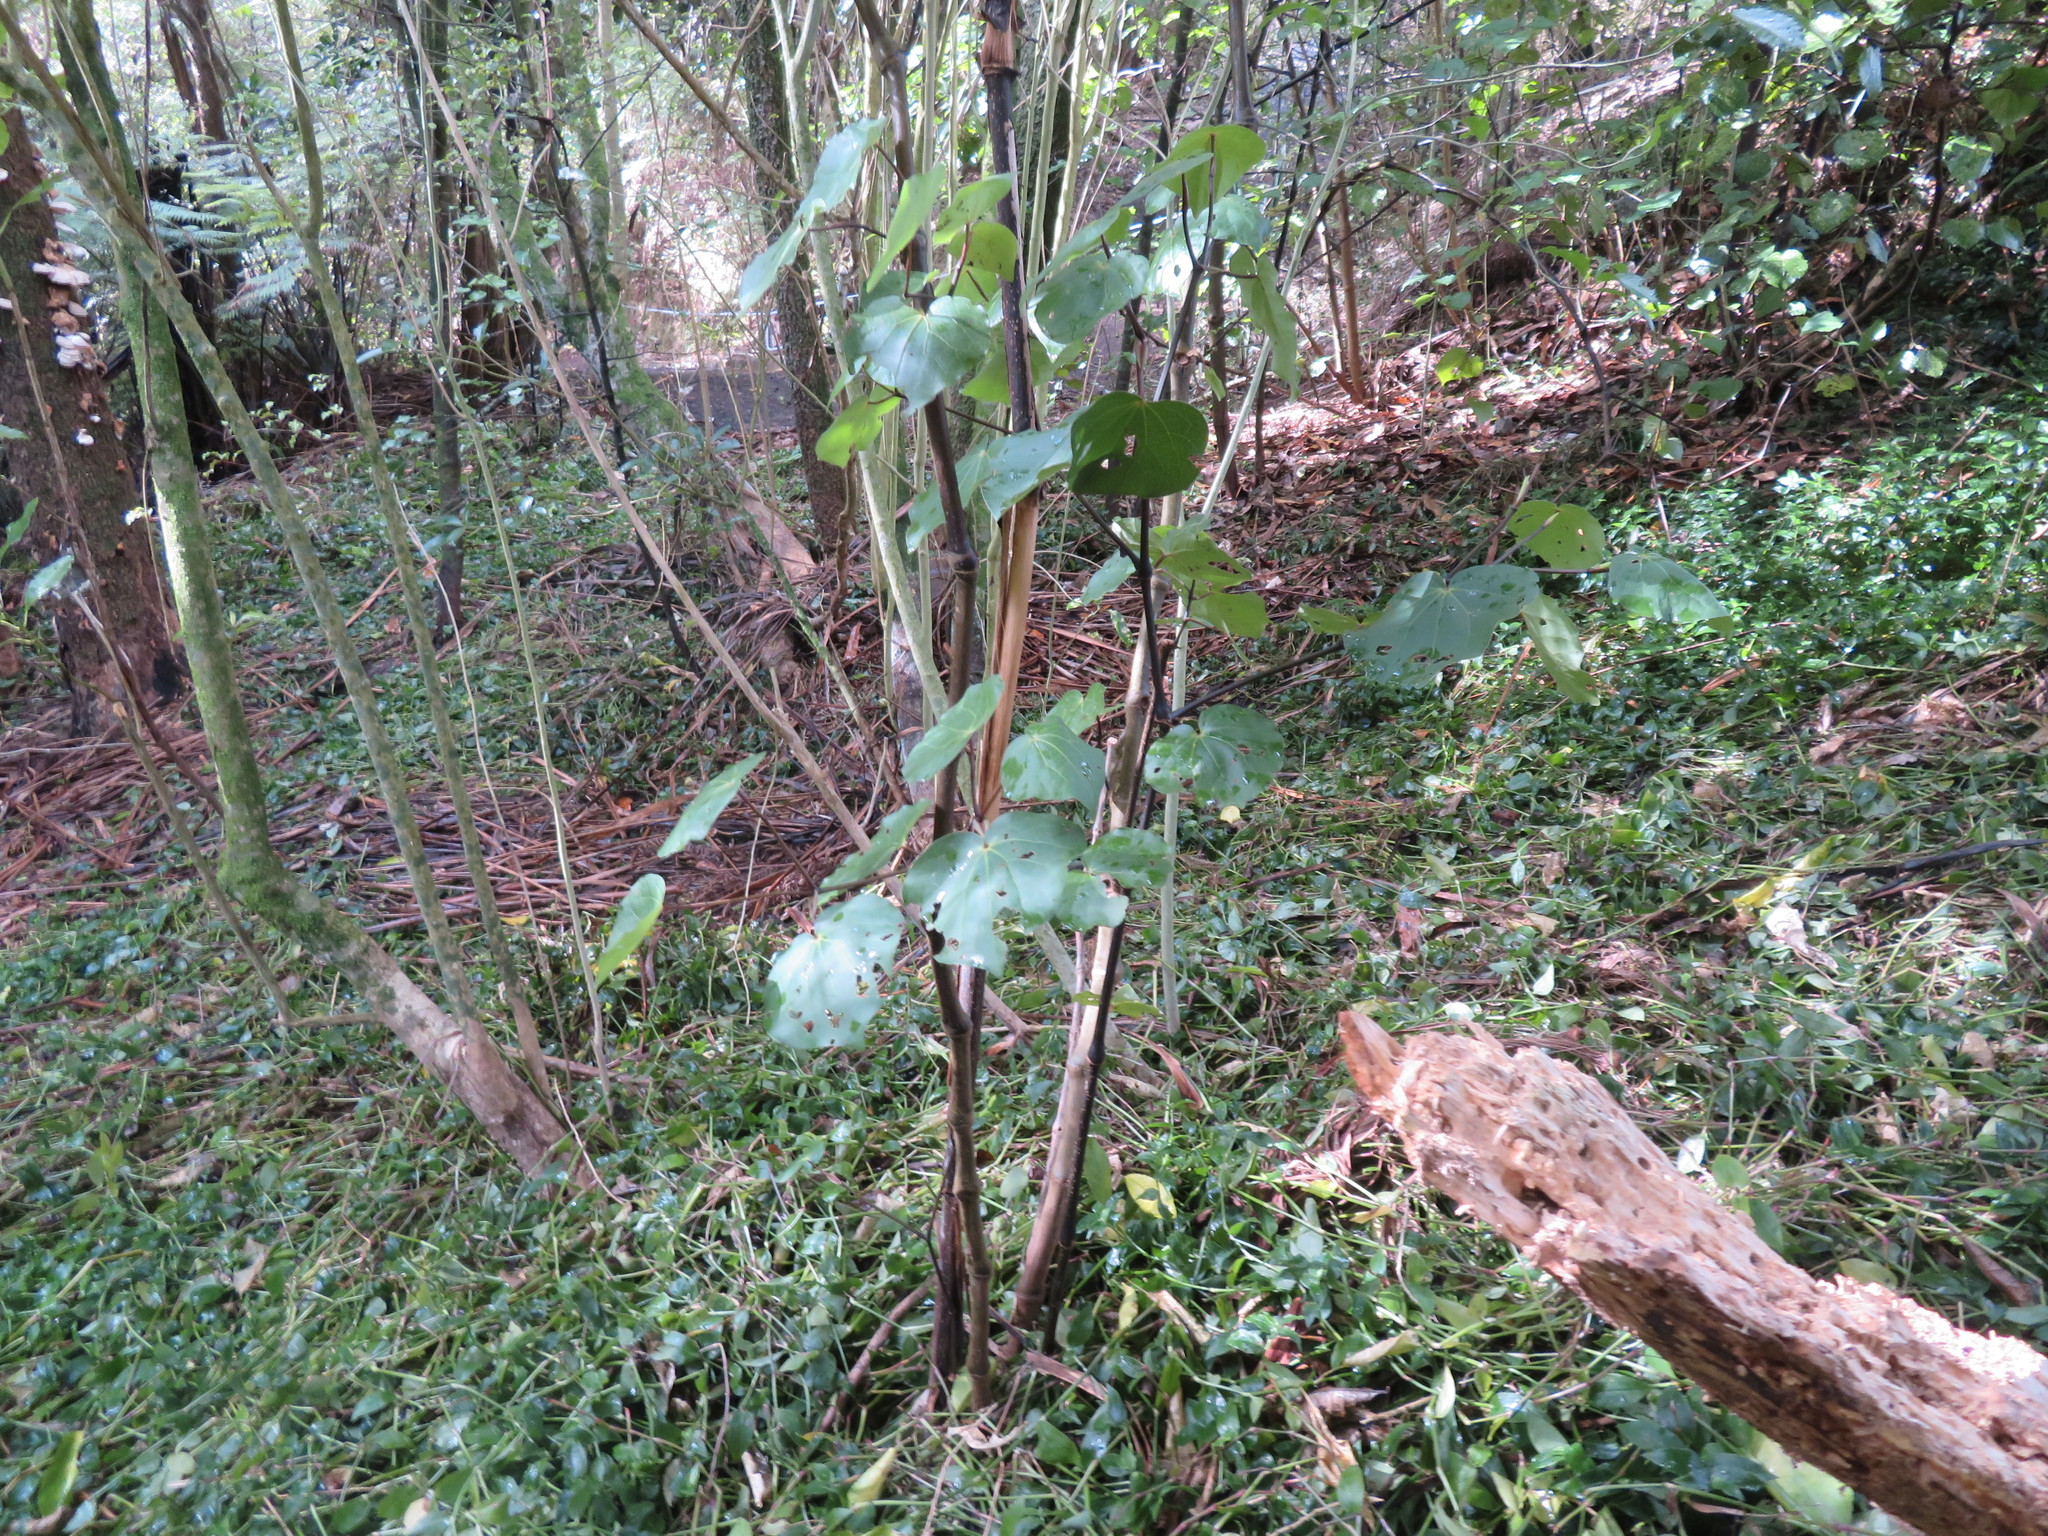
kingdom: Plantae
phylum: Tracheophyta
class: Liliopsida
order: Commelinales
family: Commelinaceae
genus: Tradescantia
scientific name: Tradescantia fluminensis
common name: Wandering-jew
